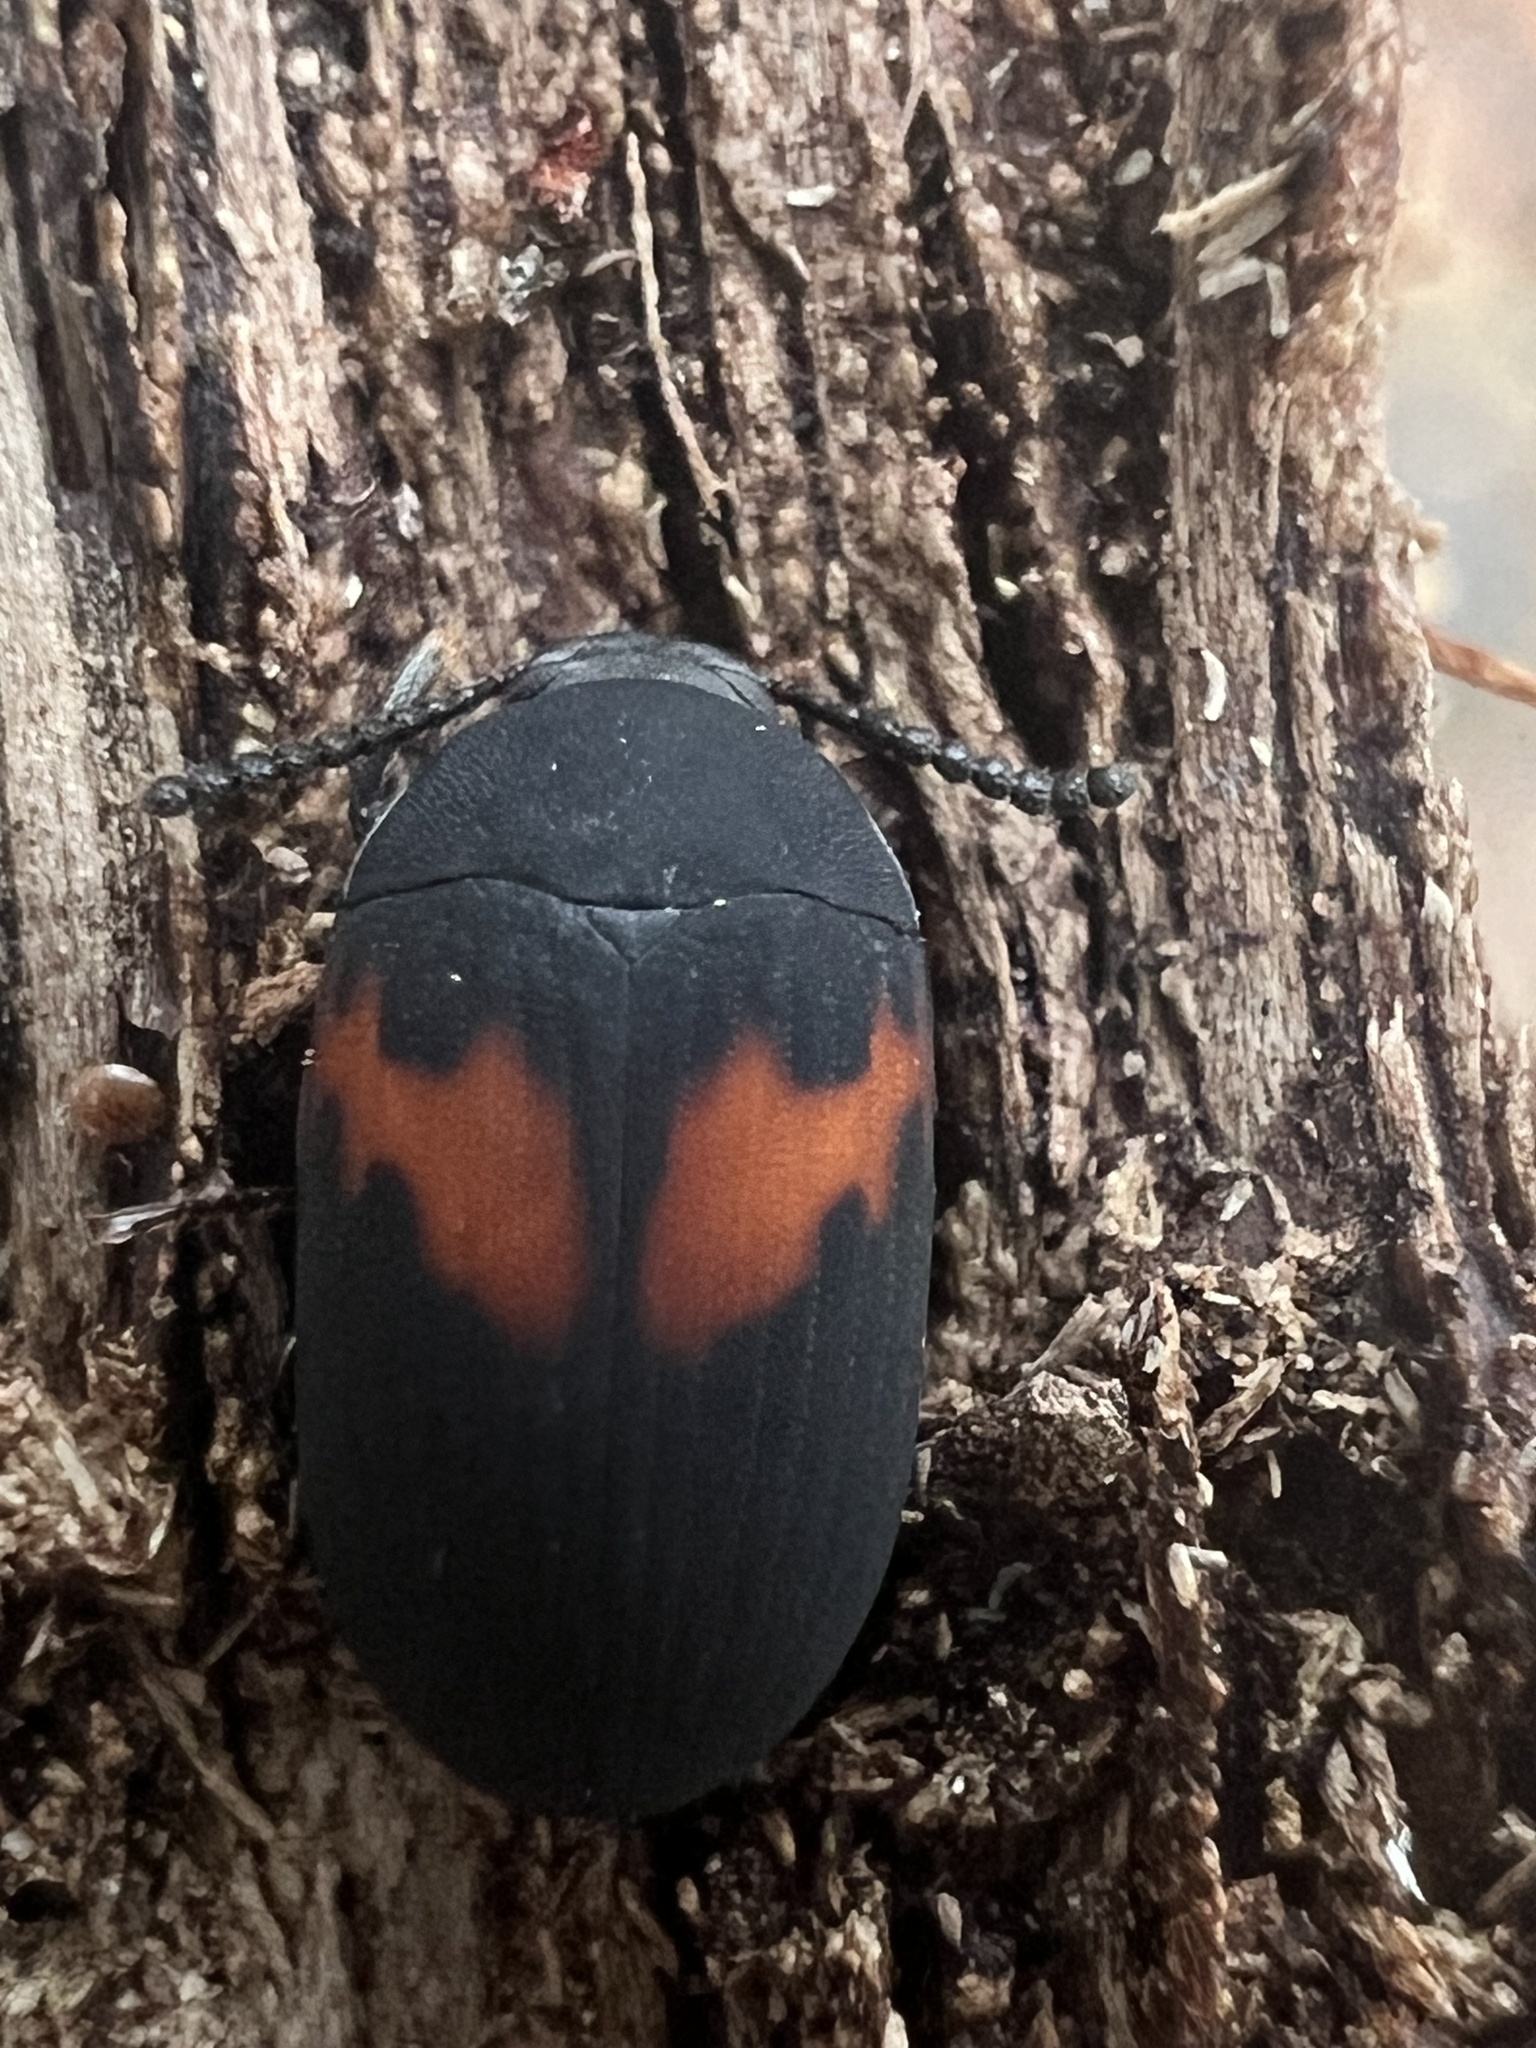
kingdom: Animalia
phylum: Arthropoda
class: Insecta
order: Coleoptera
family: Tenebrionidae
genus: Platydema
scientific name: Platydema elliptica
